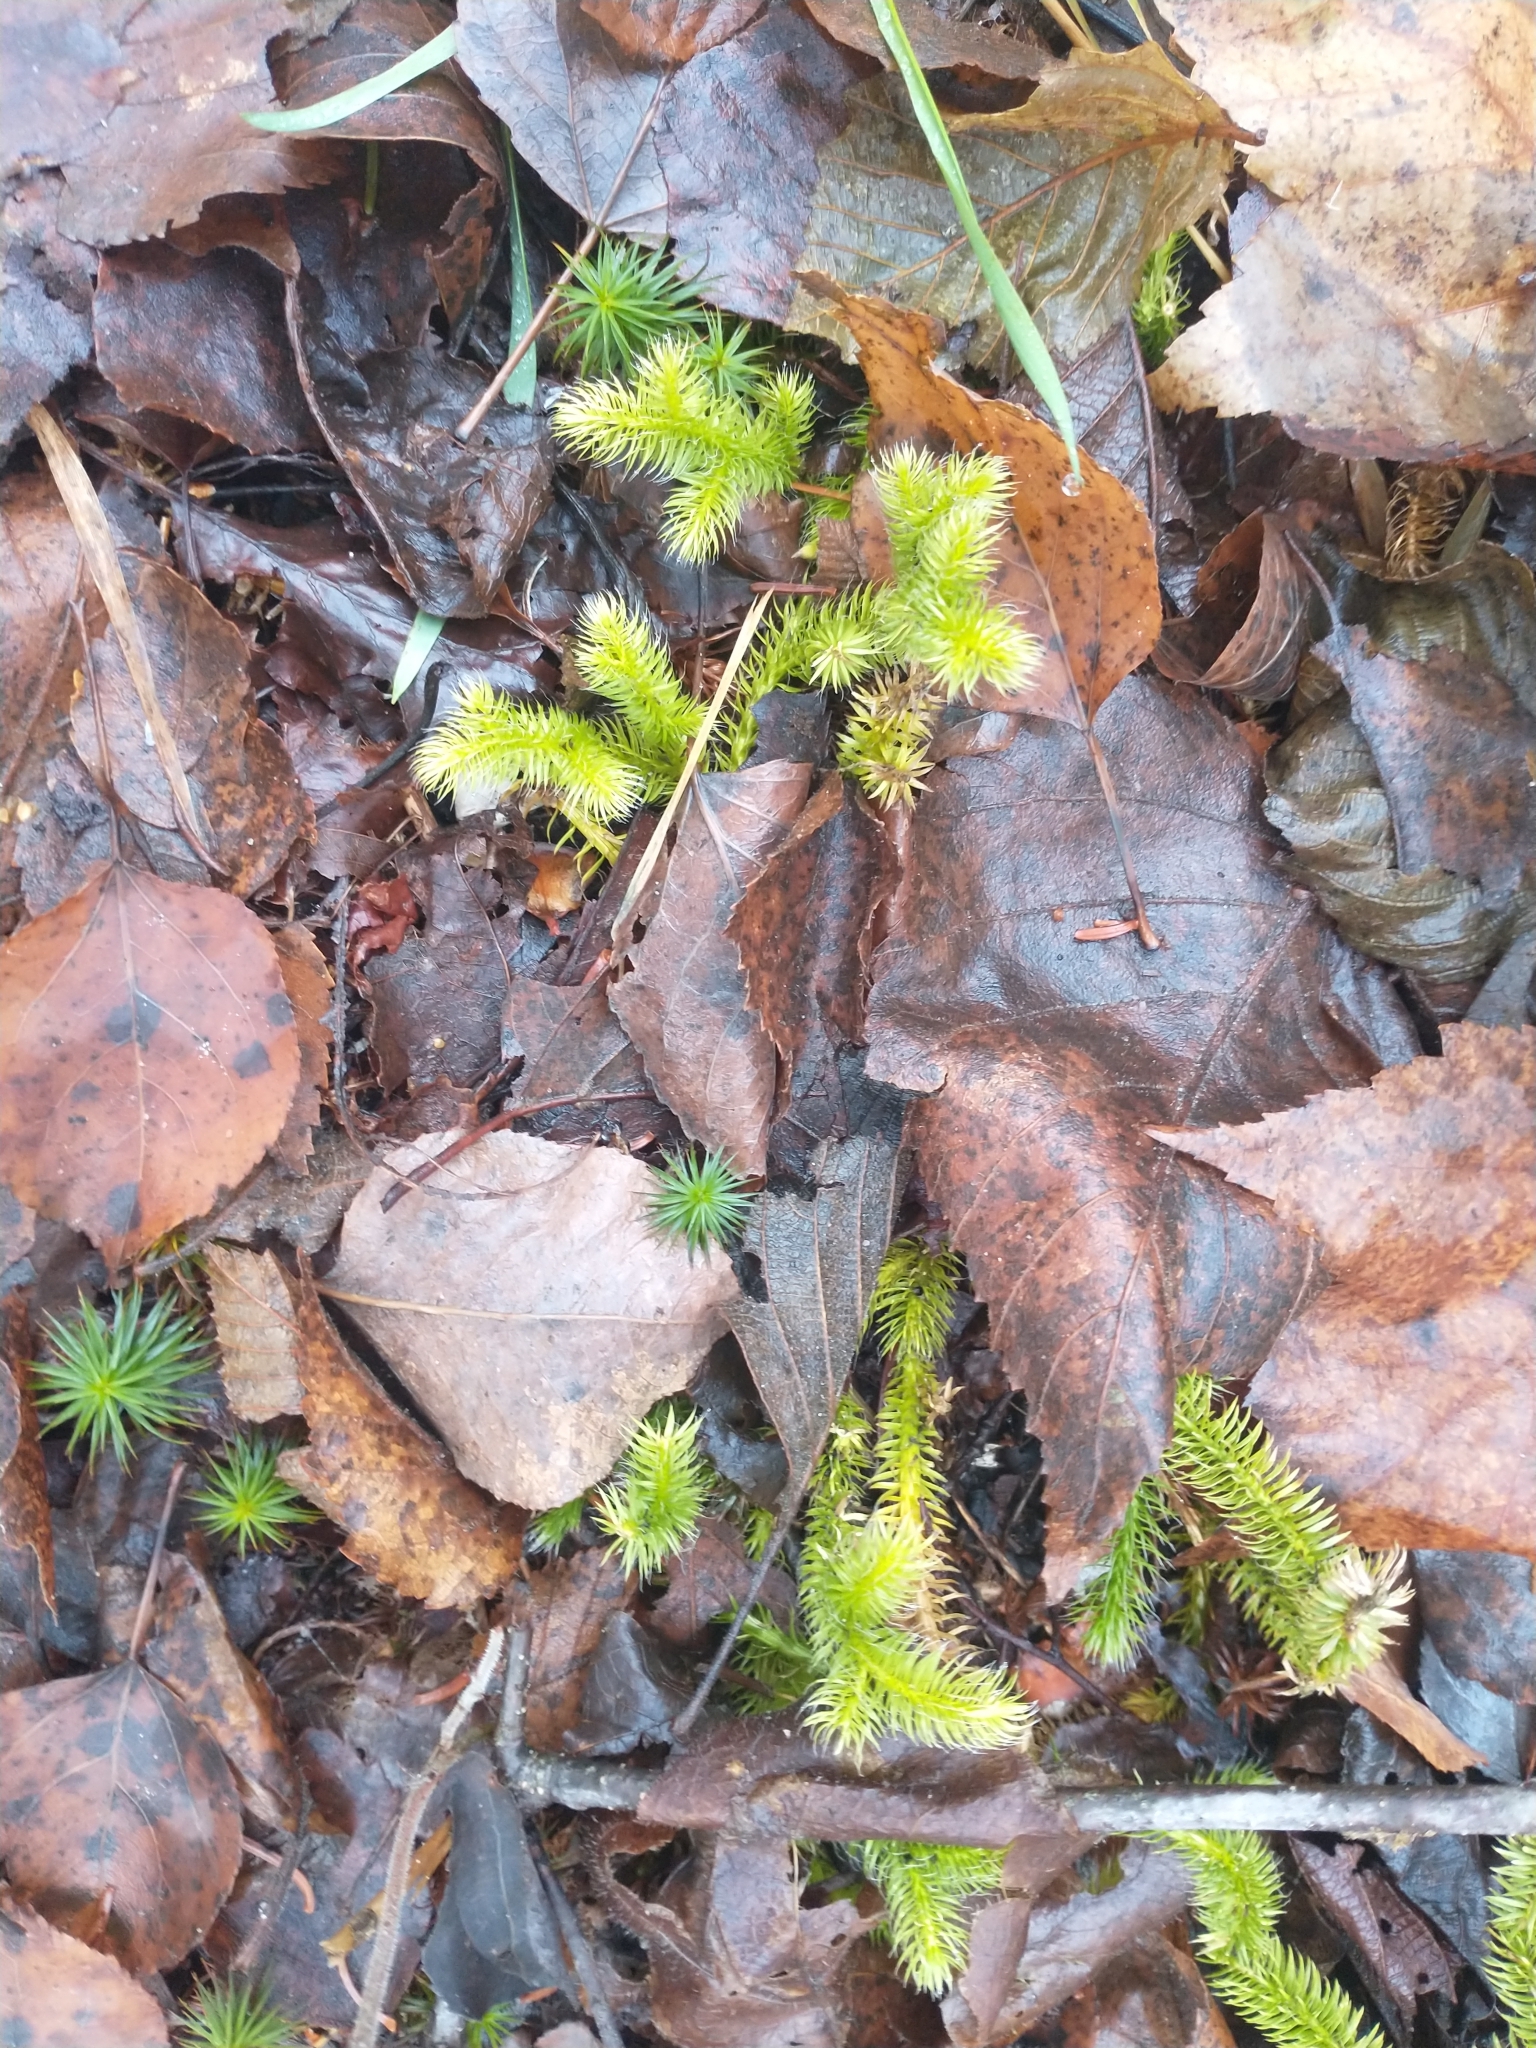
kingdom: Plantae
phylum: Tracheophyta
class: Lycopodiopsida
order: Lycopodiales
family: Lycopodiaceae
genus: Lycopodium
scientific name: Lycopodium clavatum
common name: Stag's-horn clubmoss
